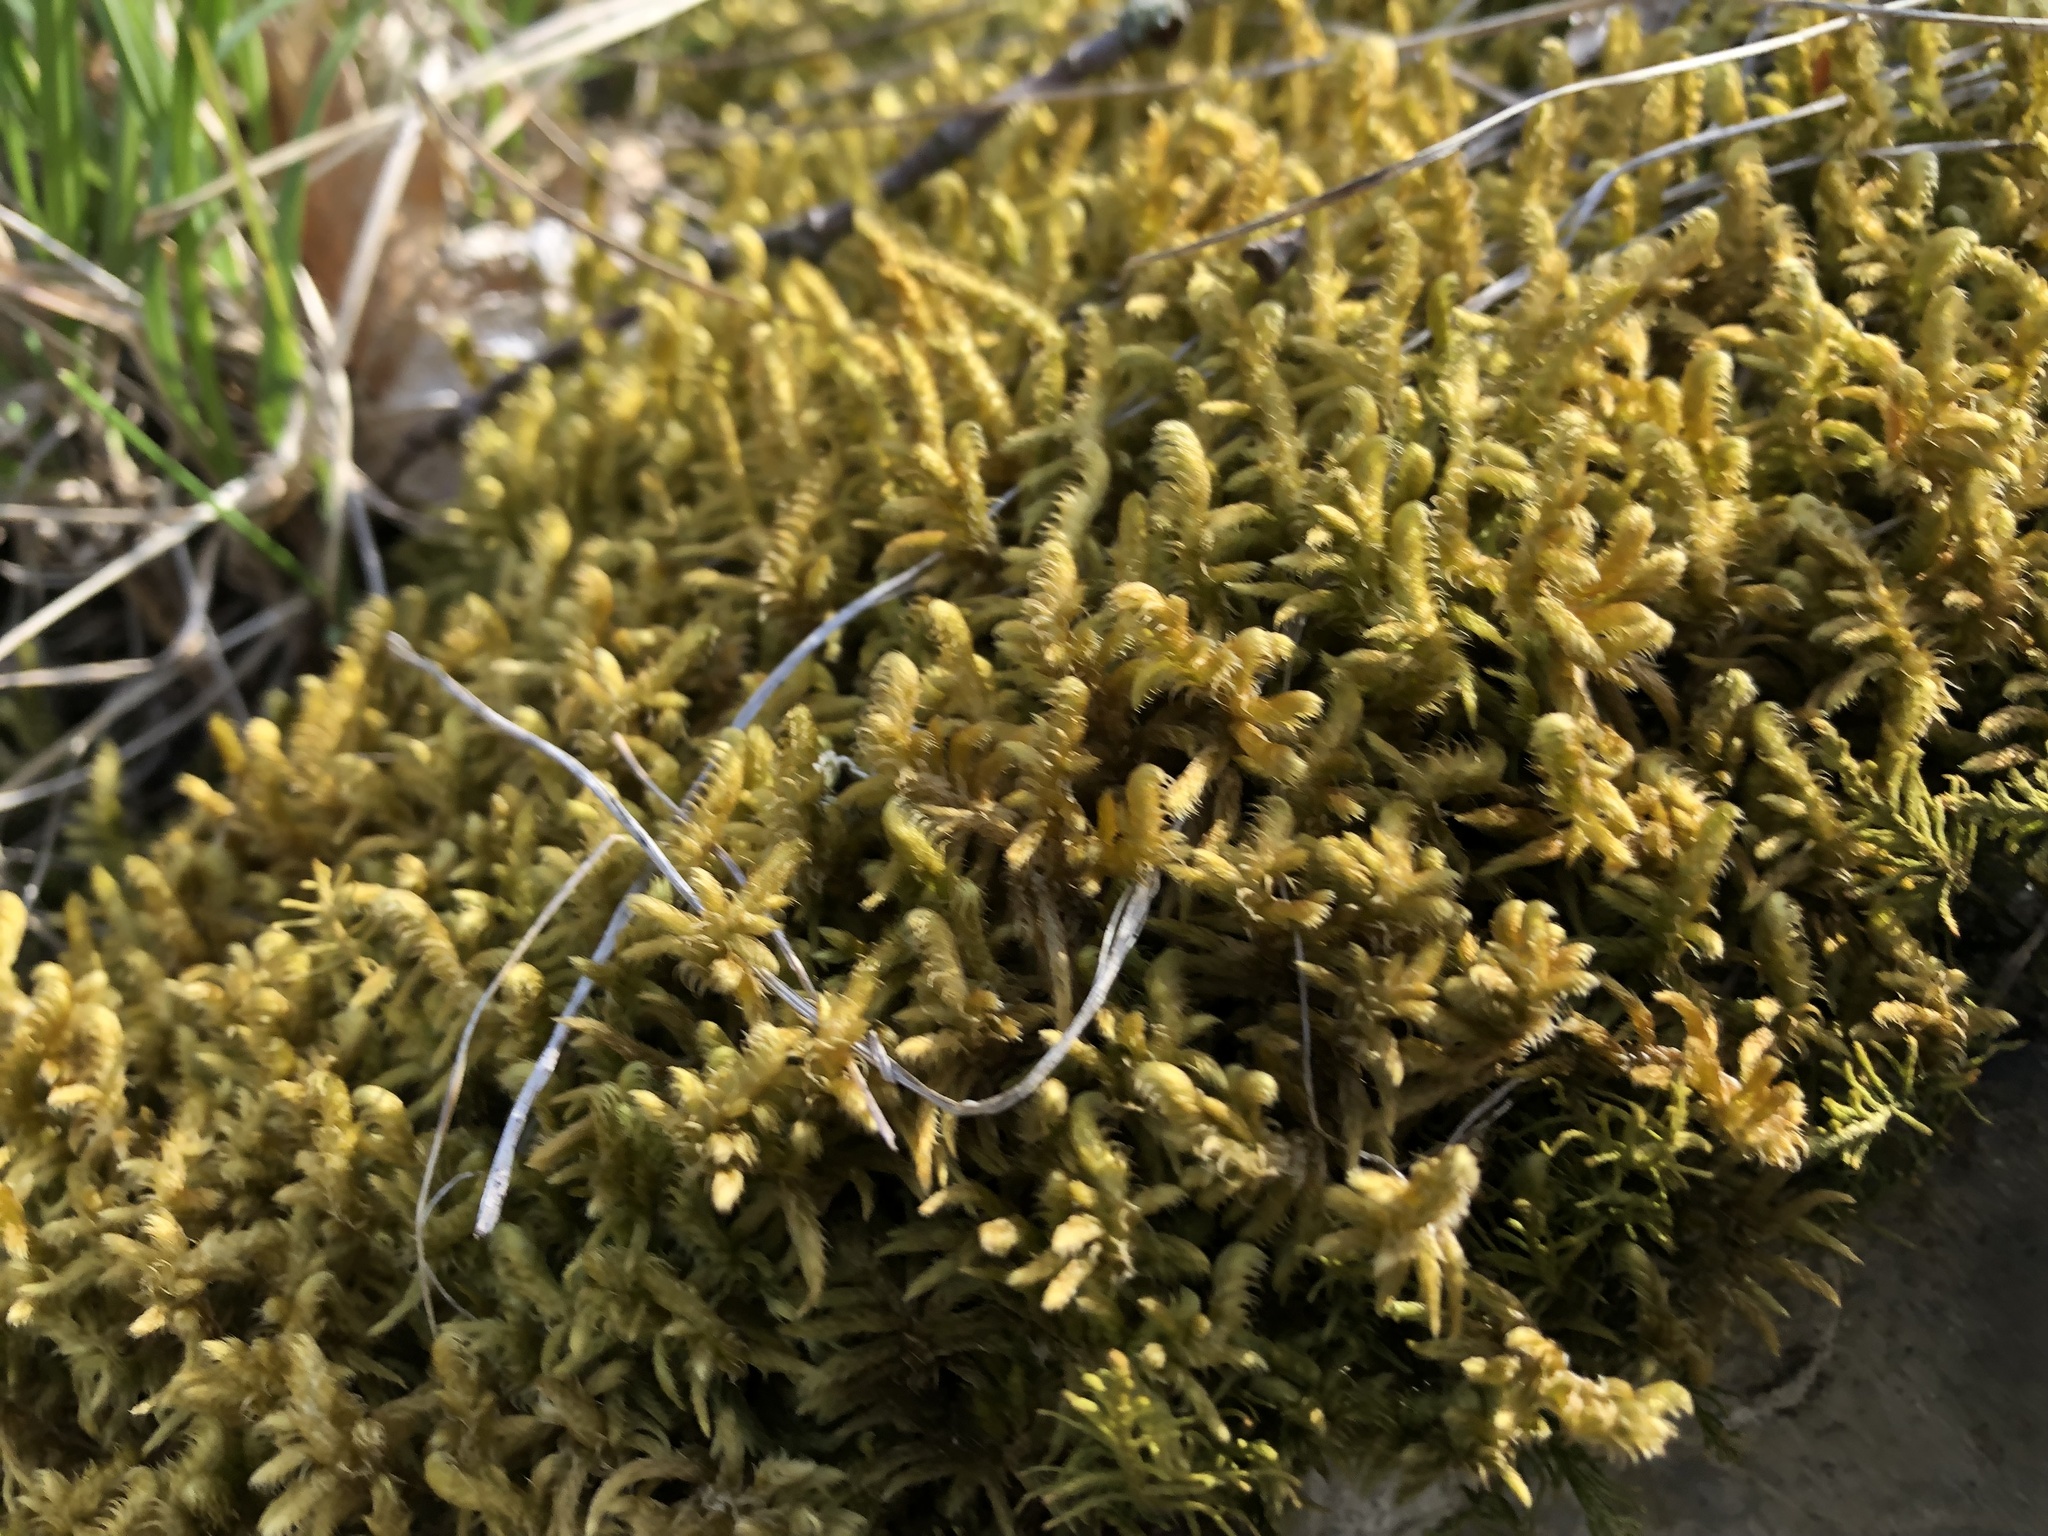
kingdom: Plantae
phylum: Bryophyta
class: Bryopsida
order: Hypnales
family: Rhytidiaceae
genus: Rhytidium
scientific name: Rhytidium rugosum
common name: Wrinkle-leaved moss
